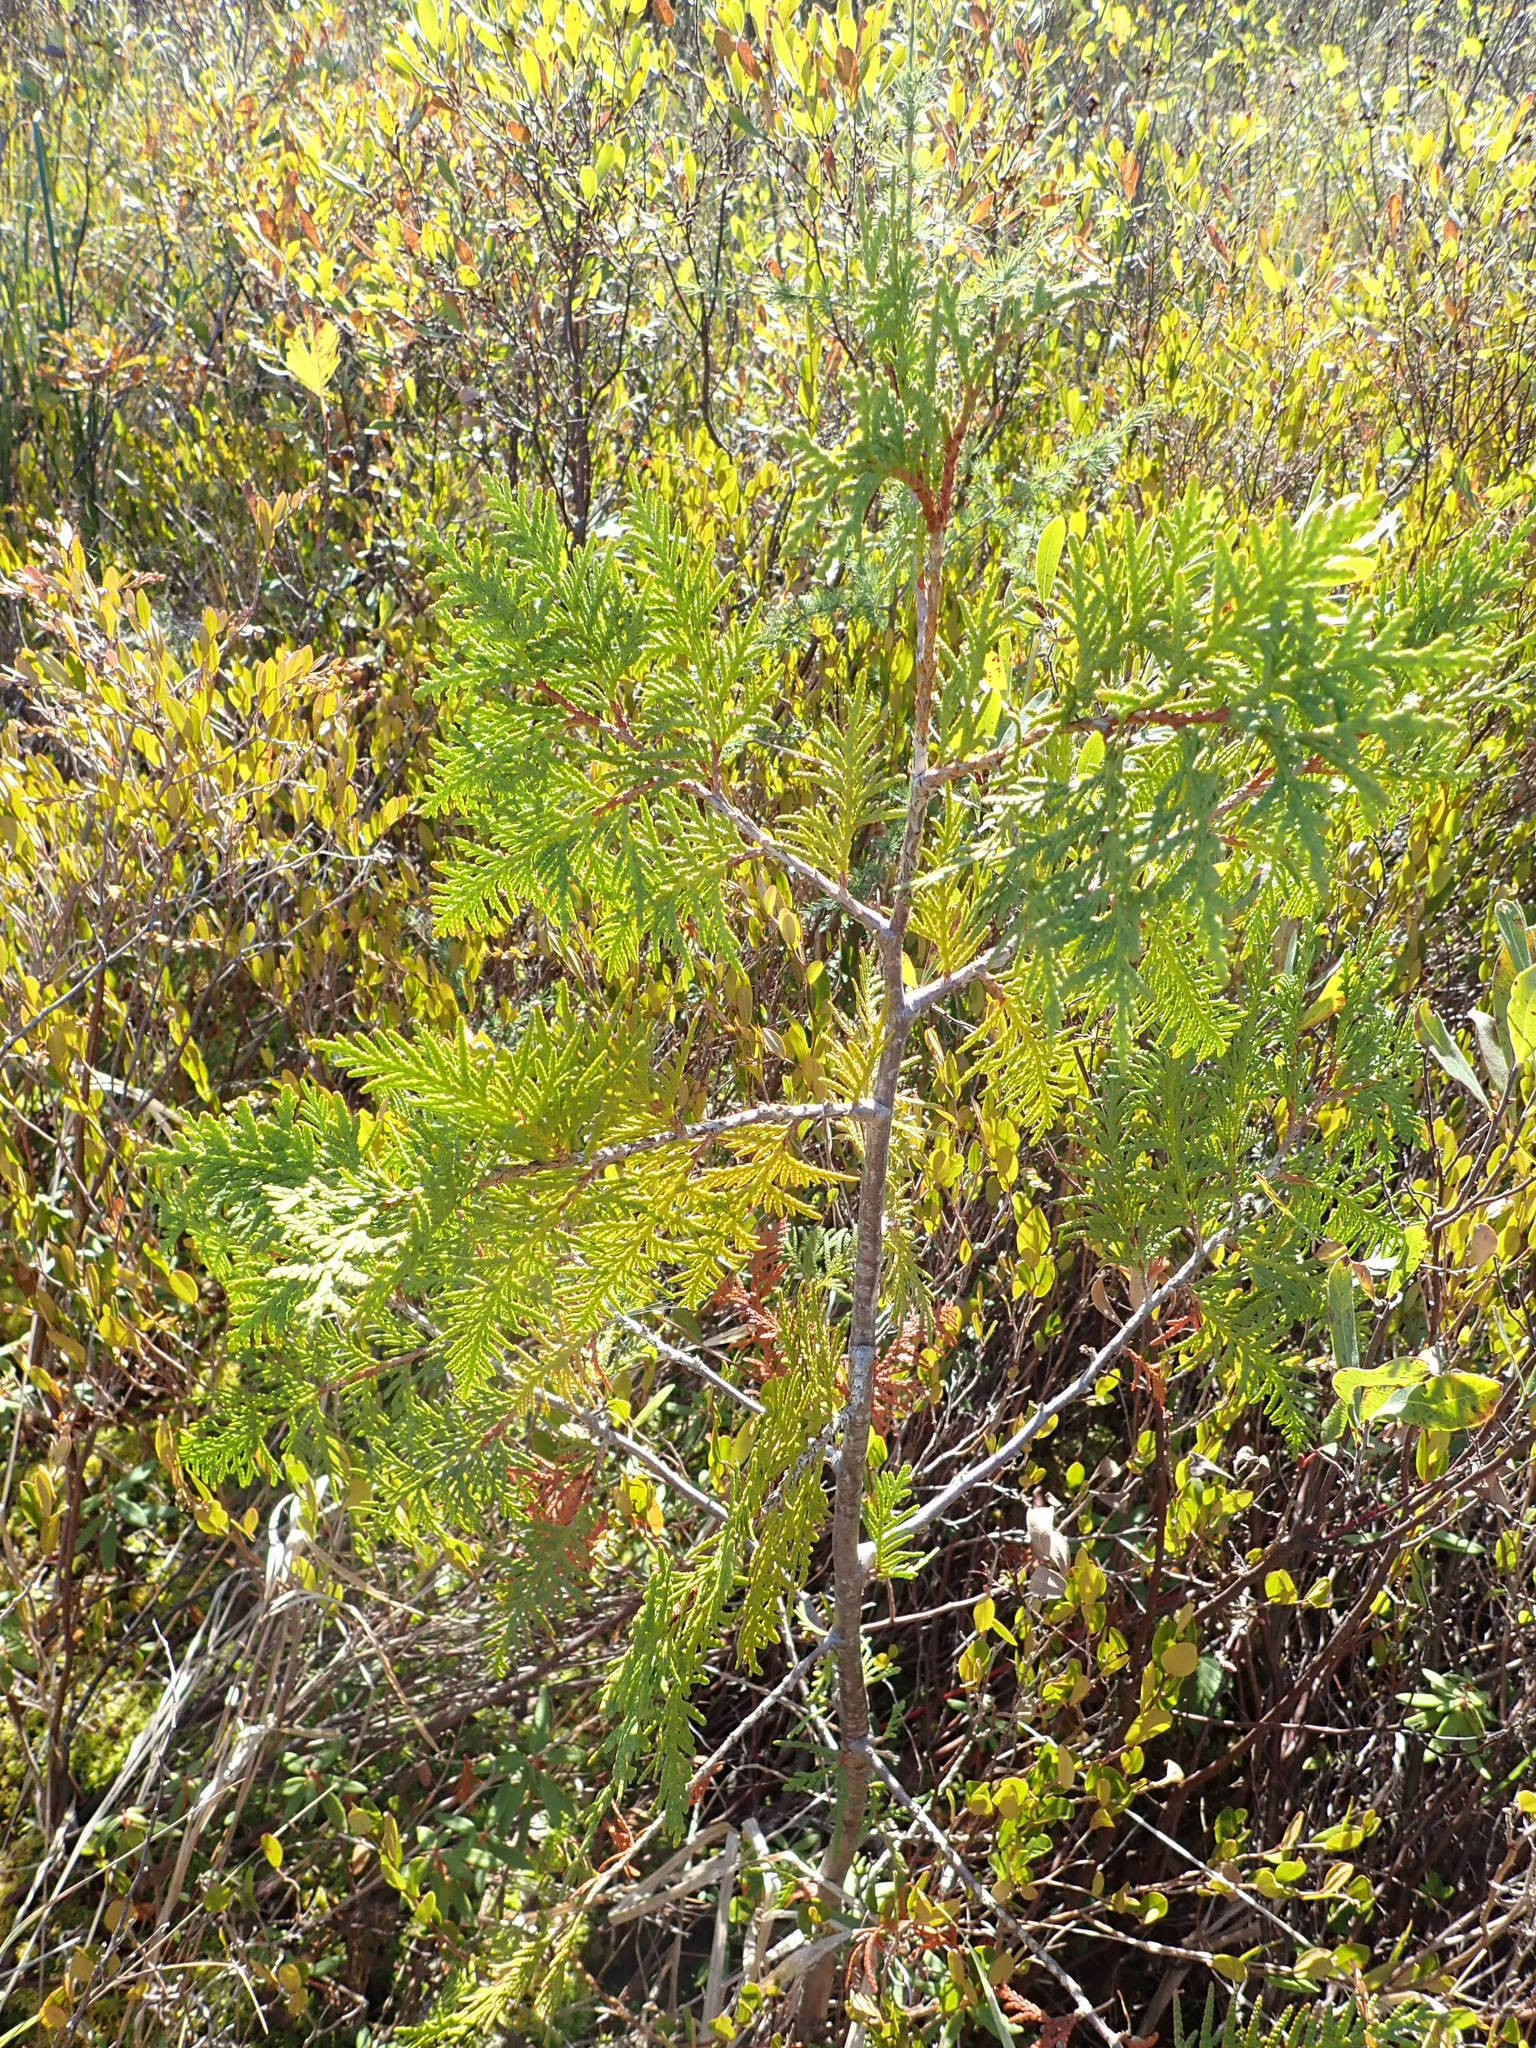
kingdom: Plantae
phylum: Tracheophyta
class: Pinopsida
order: Pinales
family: Cupressaceae
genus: Thuja
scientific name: Thuja occidentalis
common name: Northern white-cedar
